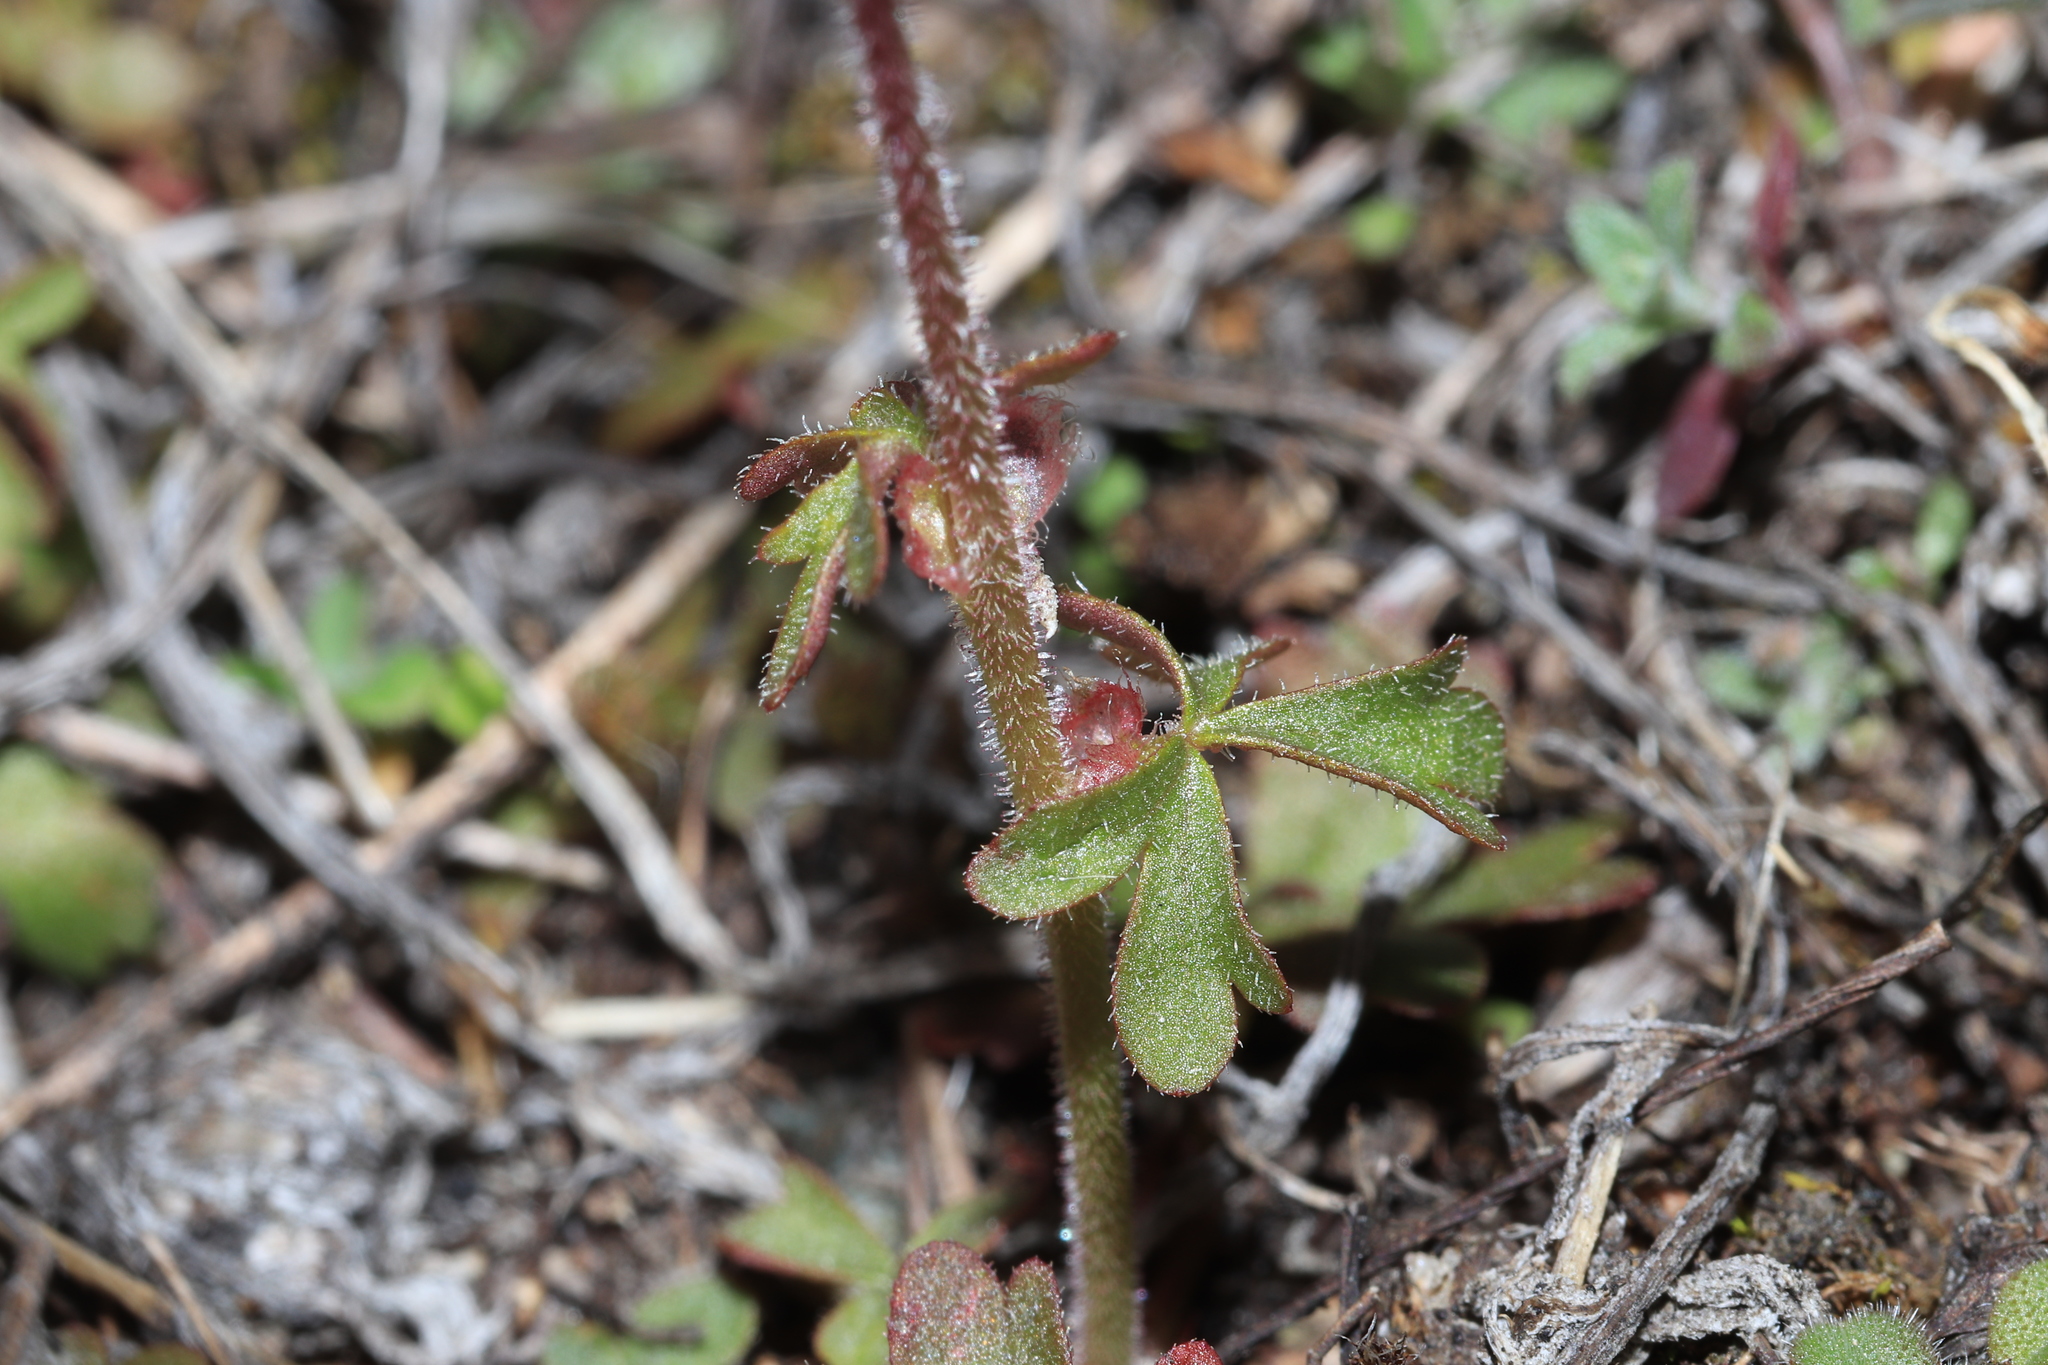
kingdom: Plantae
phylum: Tracheophyta
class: Magnoliopsida
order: Saxifragales
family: Saxifragaceae
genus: Lithophragma
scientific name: Lithophragma glabrum
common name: Bulbous prairie-star
